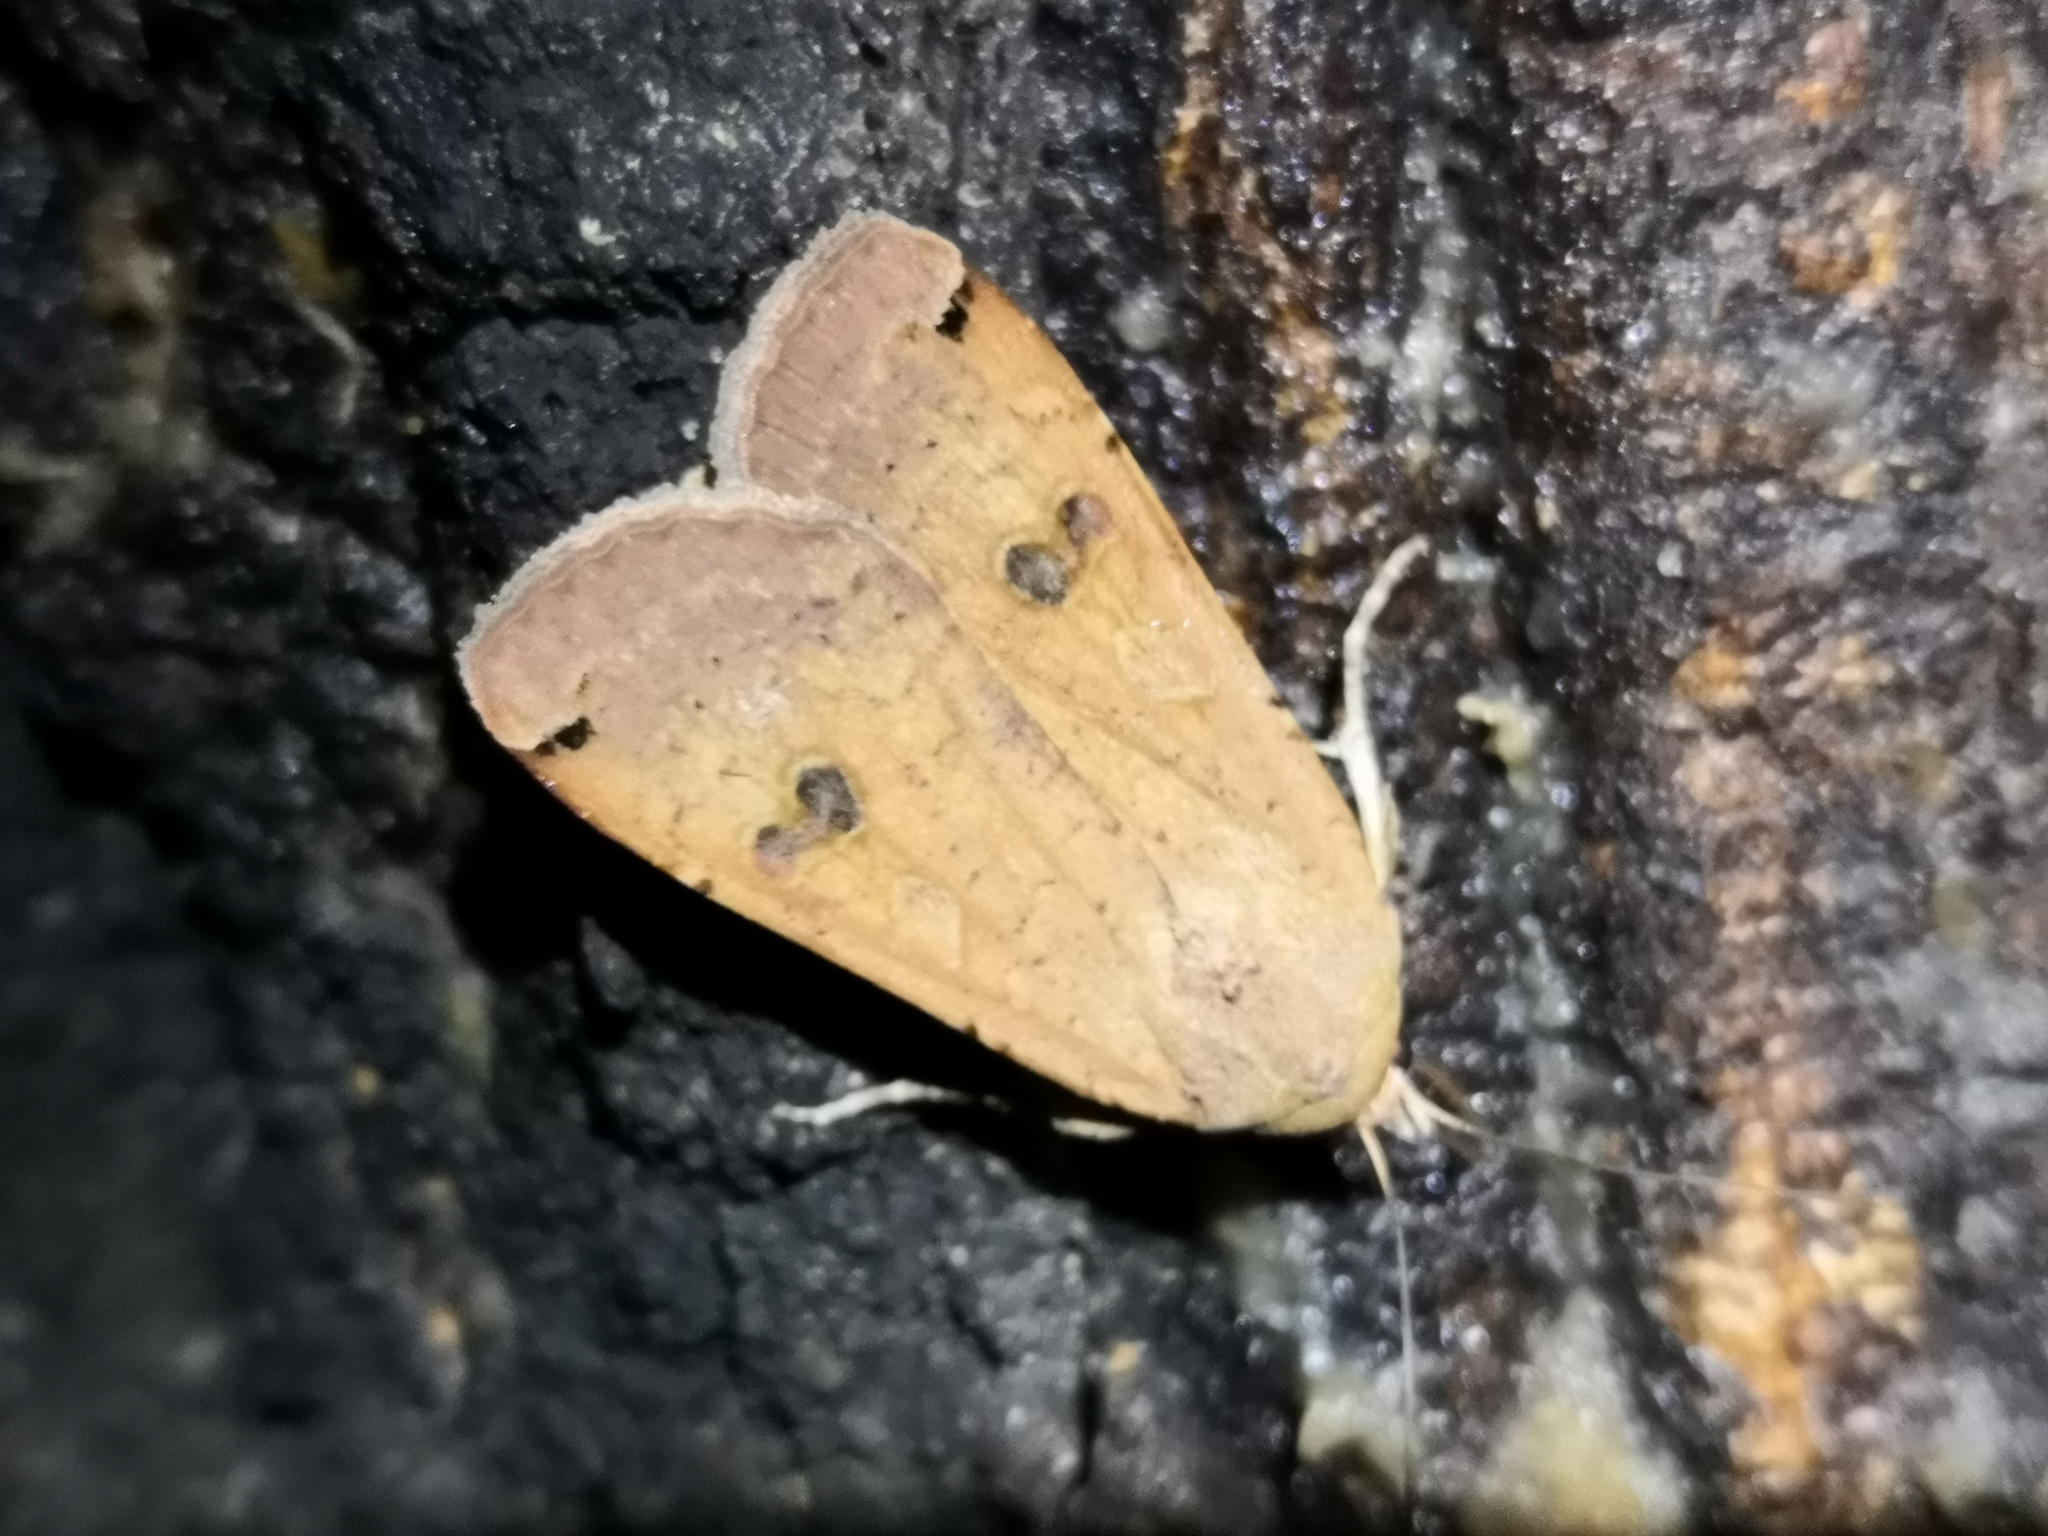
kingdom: Animalia
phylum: Arthropoda
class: Insecta
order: Lepidoptera
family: Noctuidae
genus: Noctua
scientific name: Noctua pronuba
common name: Large yellow underwing
